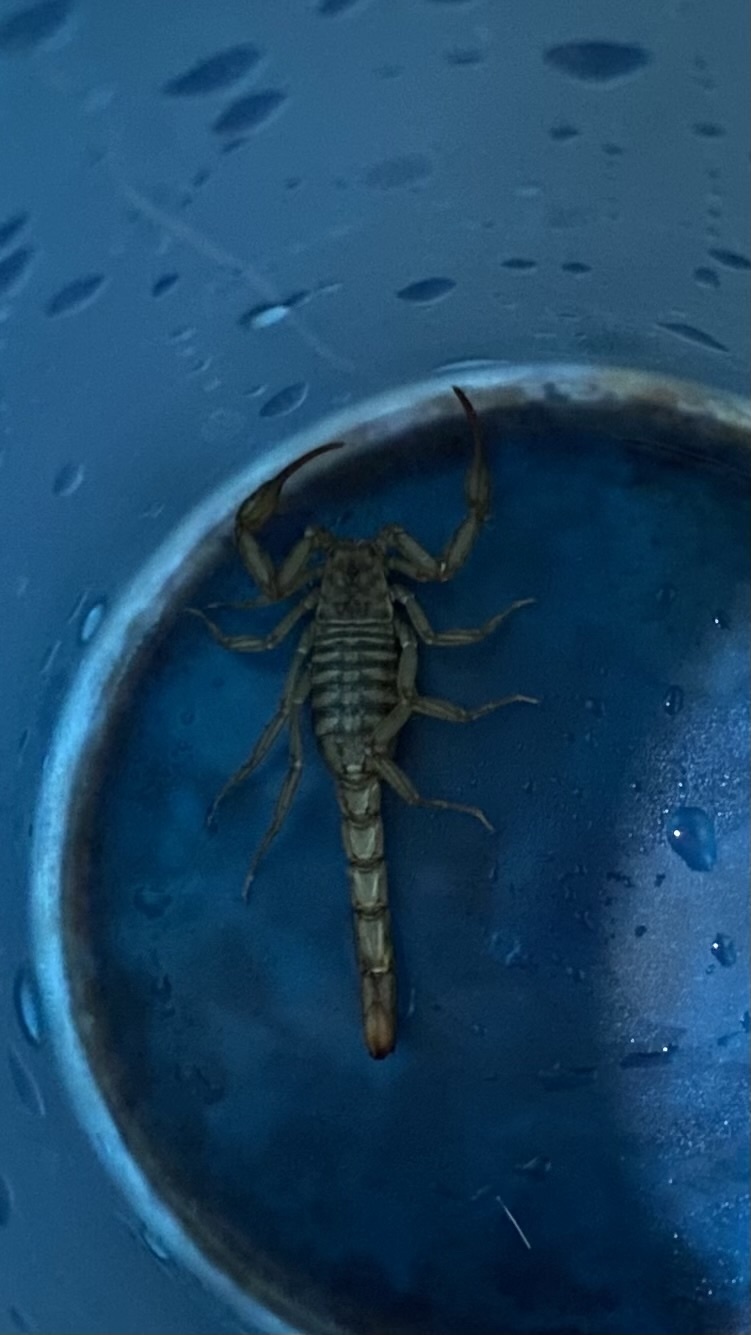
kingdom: Animalia
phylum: Arthropoda
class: Arachnida
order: Scorpiones
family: Vaejovidae
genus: Serradigitus
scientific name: Serradigitus gertschi
